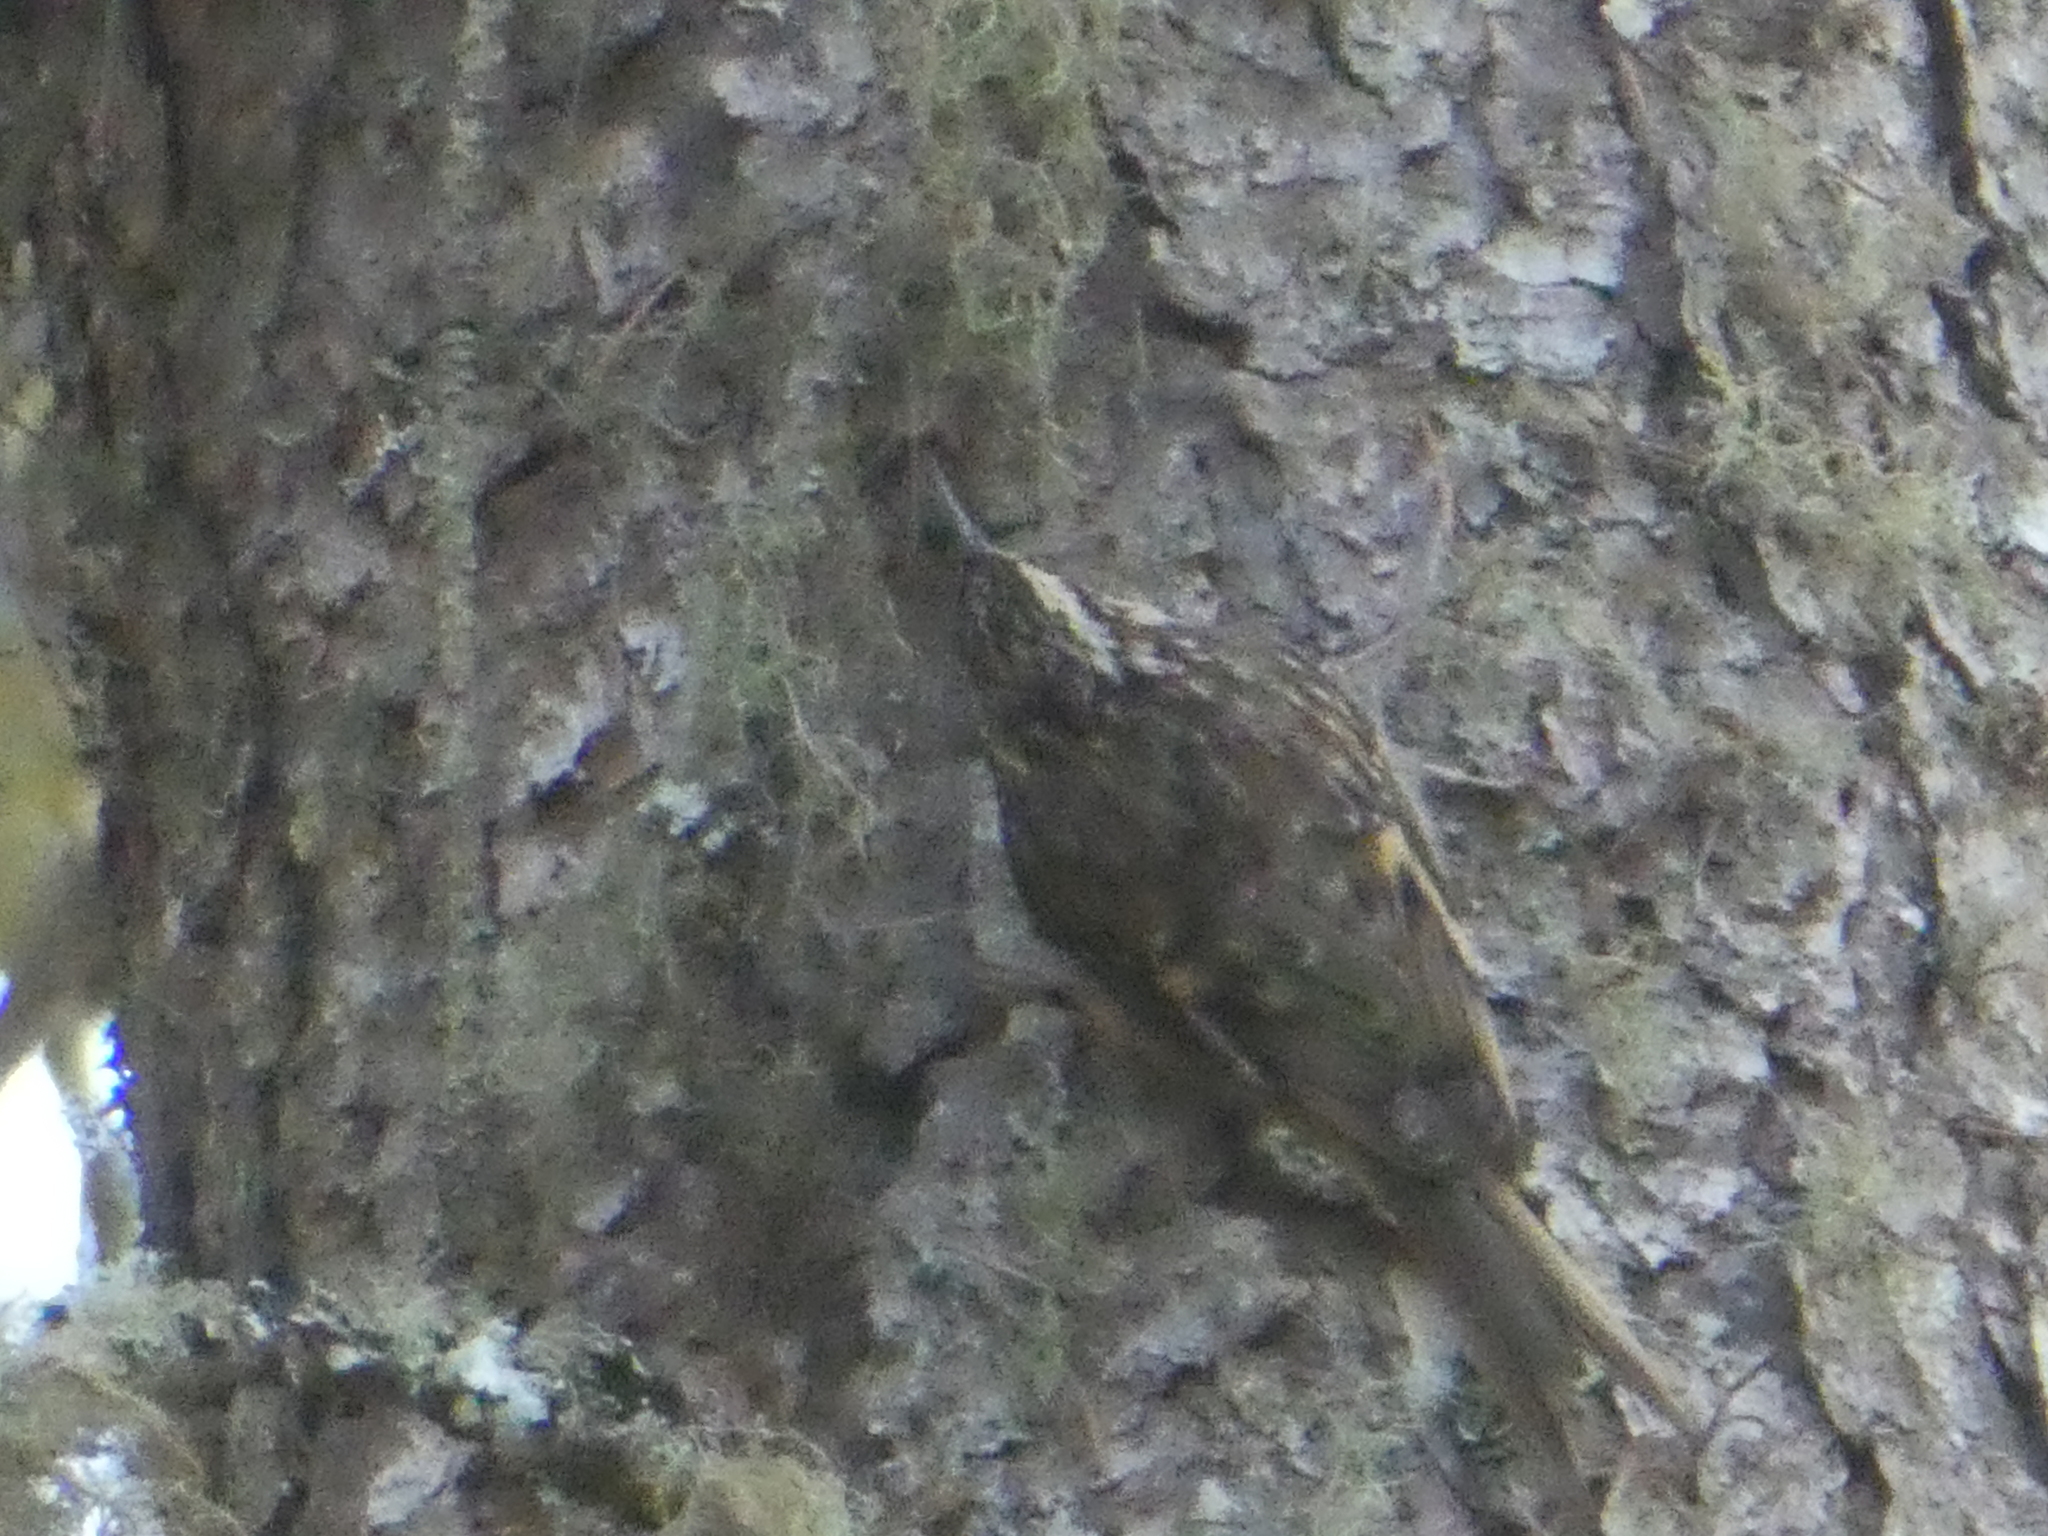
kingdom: Animalia
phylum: Chordata
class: Aves
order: Passeriformes
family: Certhiidae
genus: Certhia
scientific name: Certhia americana
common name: Brown creeper
